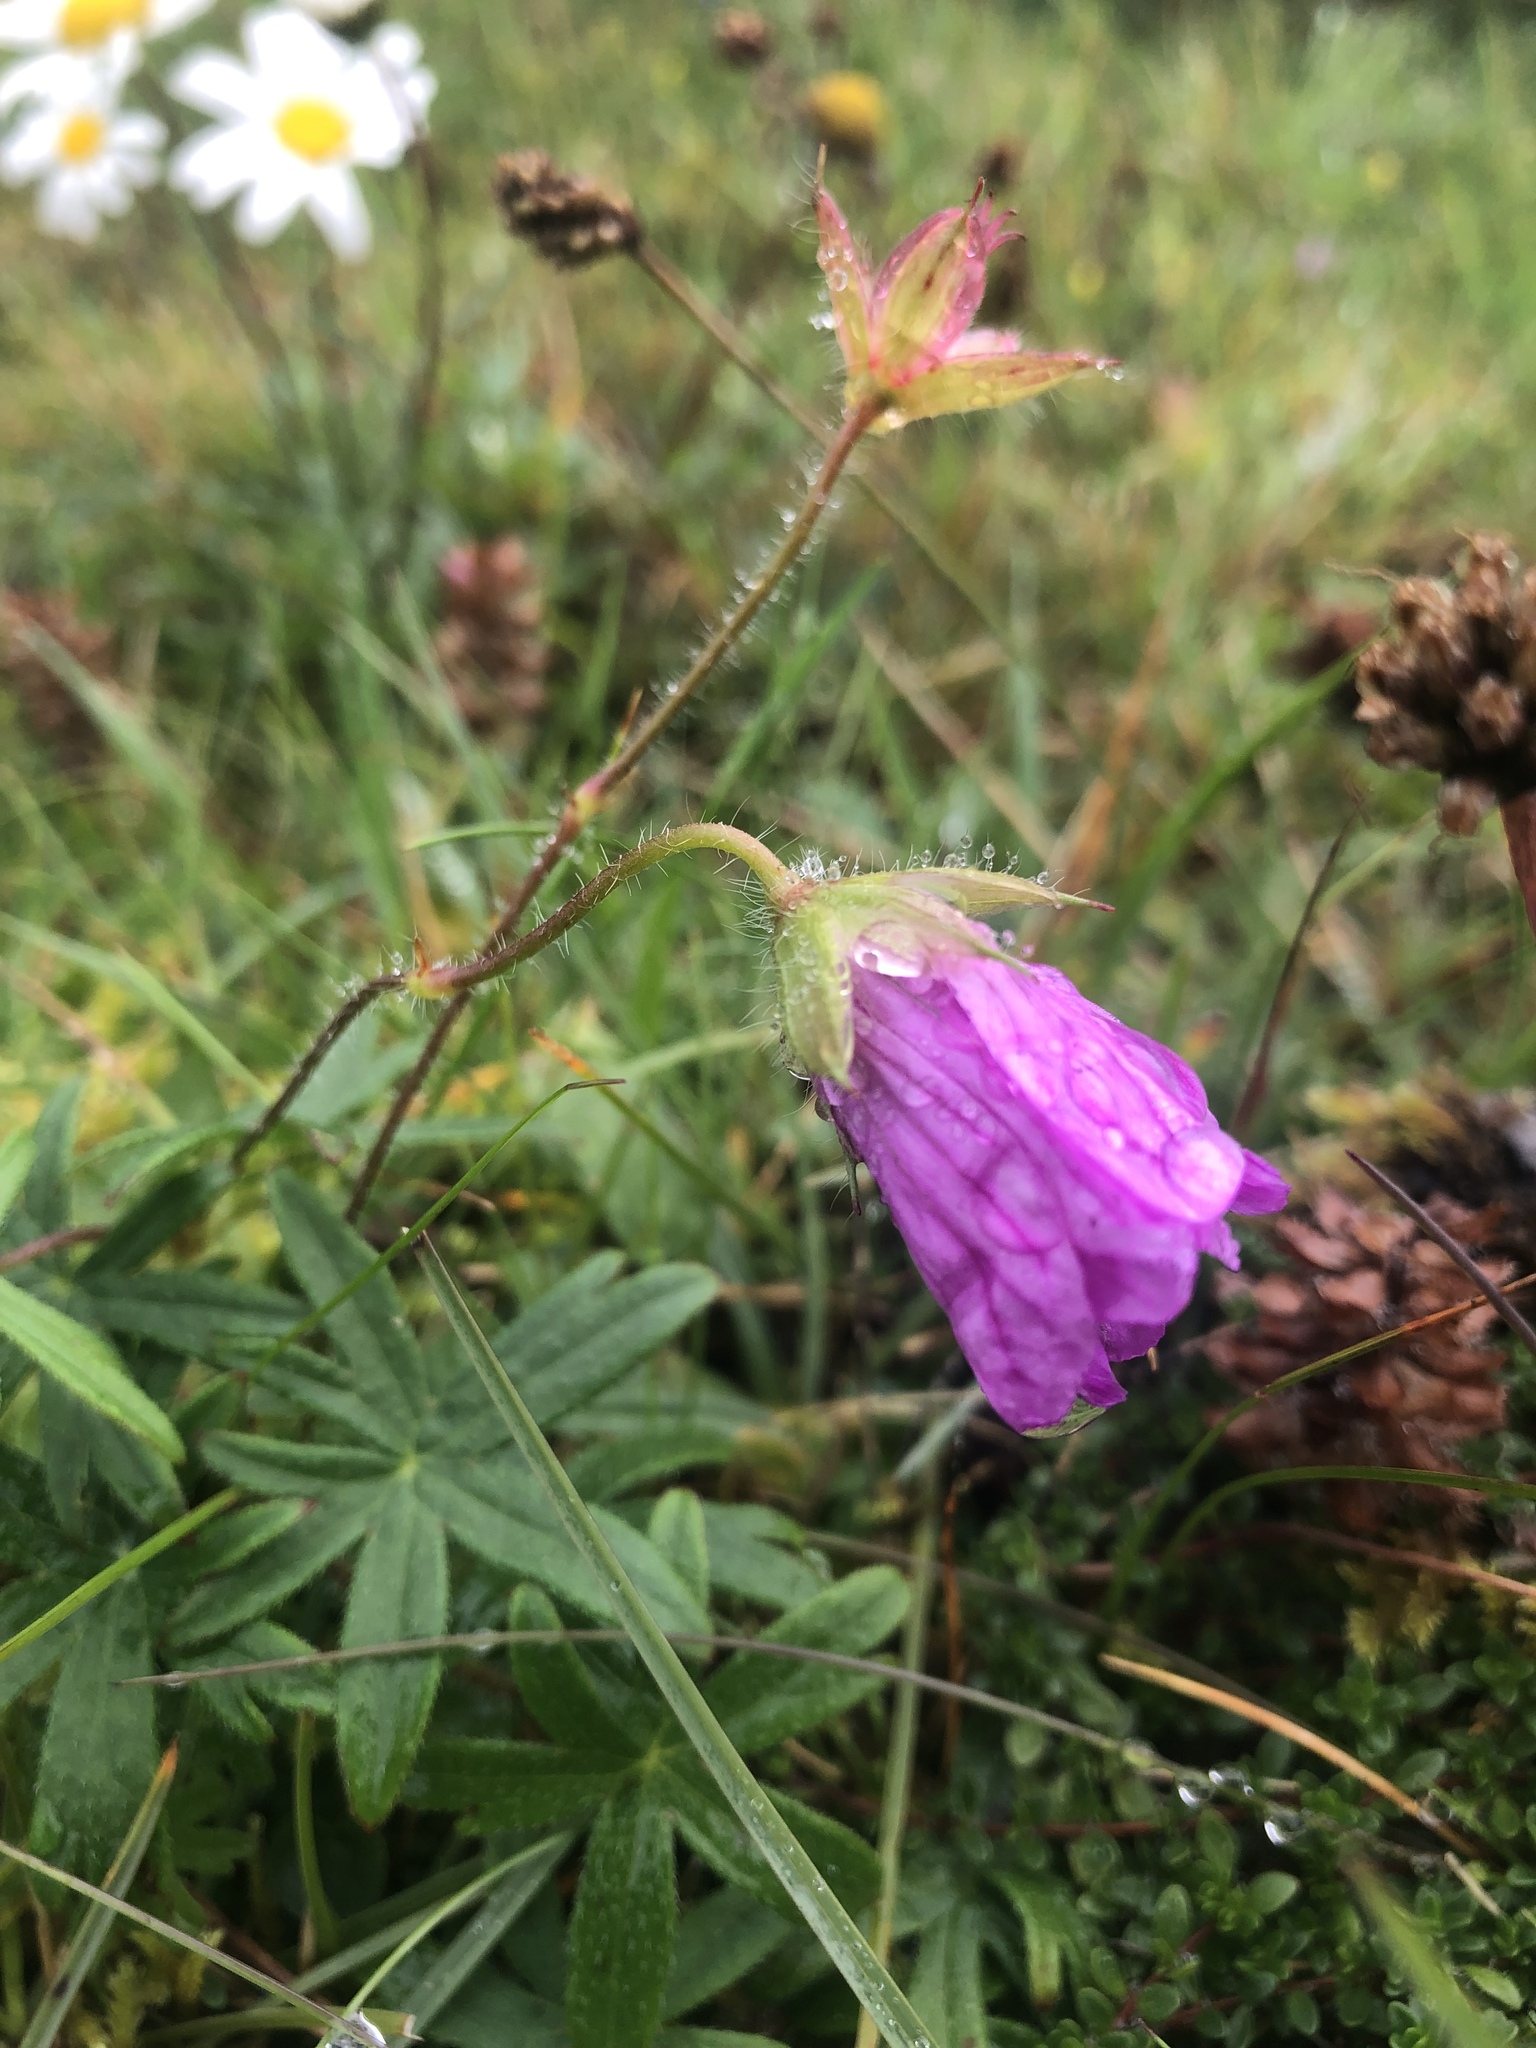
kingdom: Plantae
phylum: Tracheophyta
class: Magnoliopsida
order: Geraniales
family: Geraniaceae
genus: Geranium
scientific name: Geranium sanguineum
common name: Bloody crane's-bill
